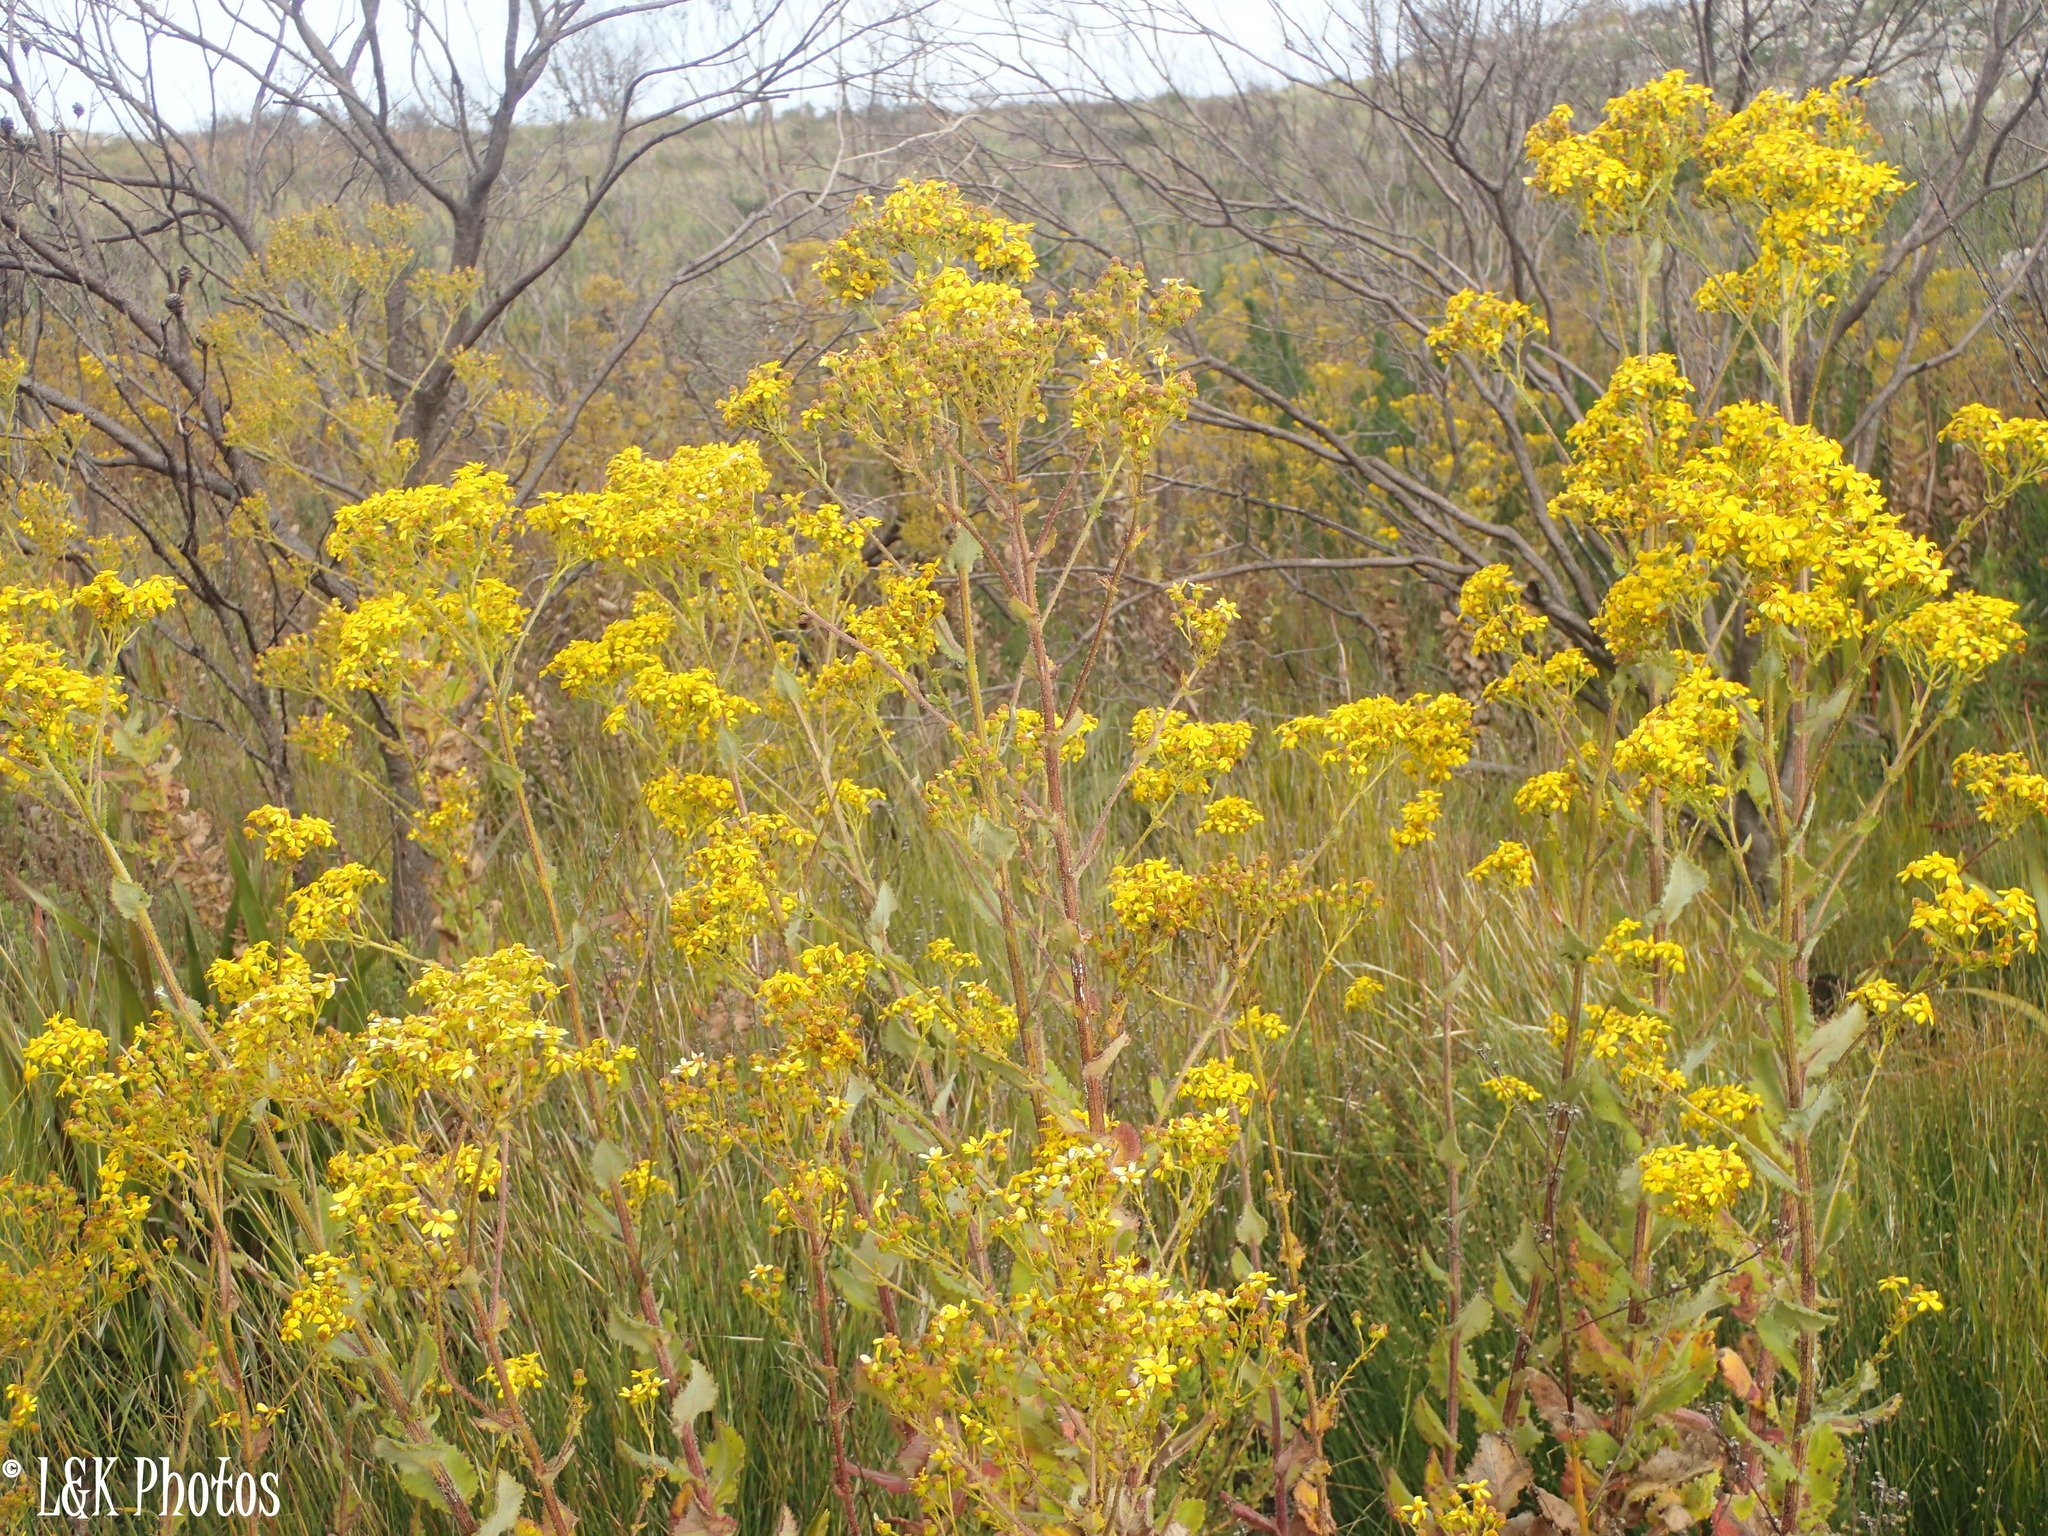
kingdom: Plantae
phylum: Tracheophyta
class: Magnoliopsida
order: Asterales
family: Asteraceae
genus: Senecio
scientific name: Senecio rigidus
